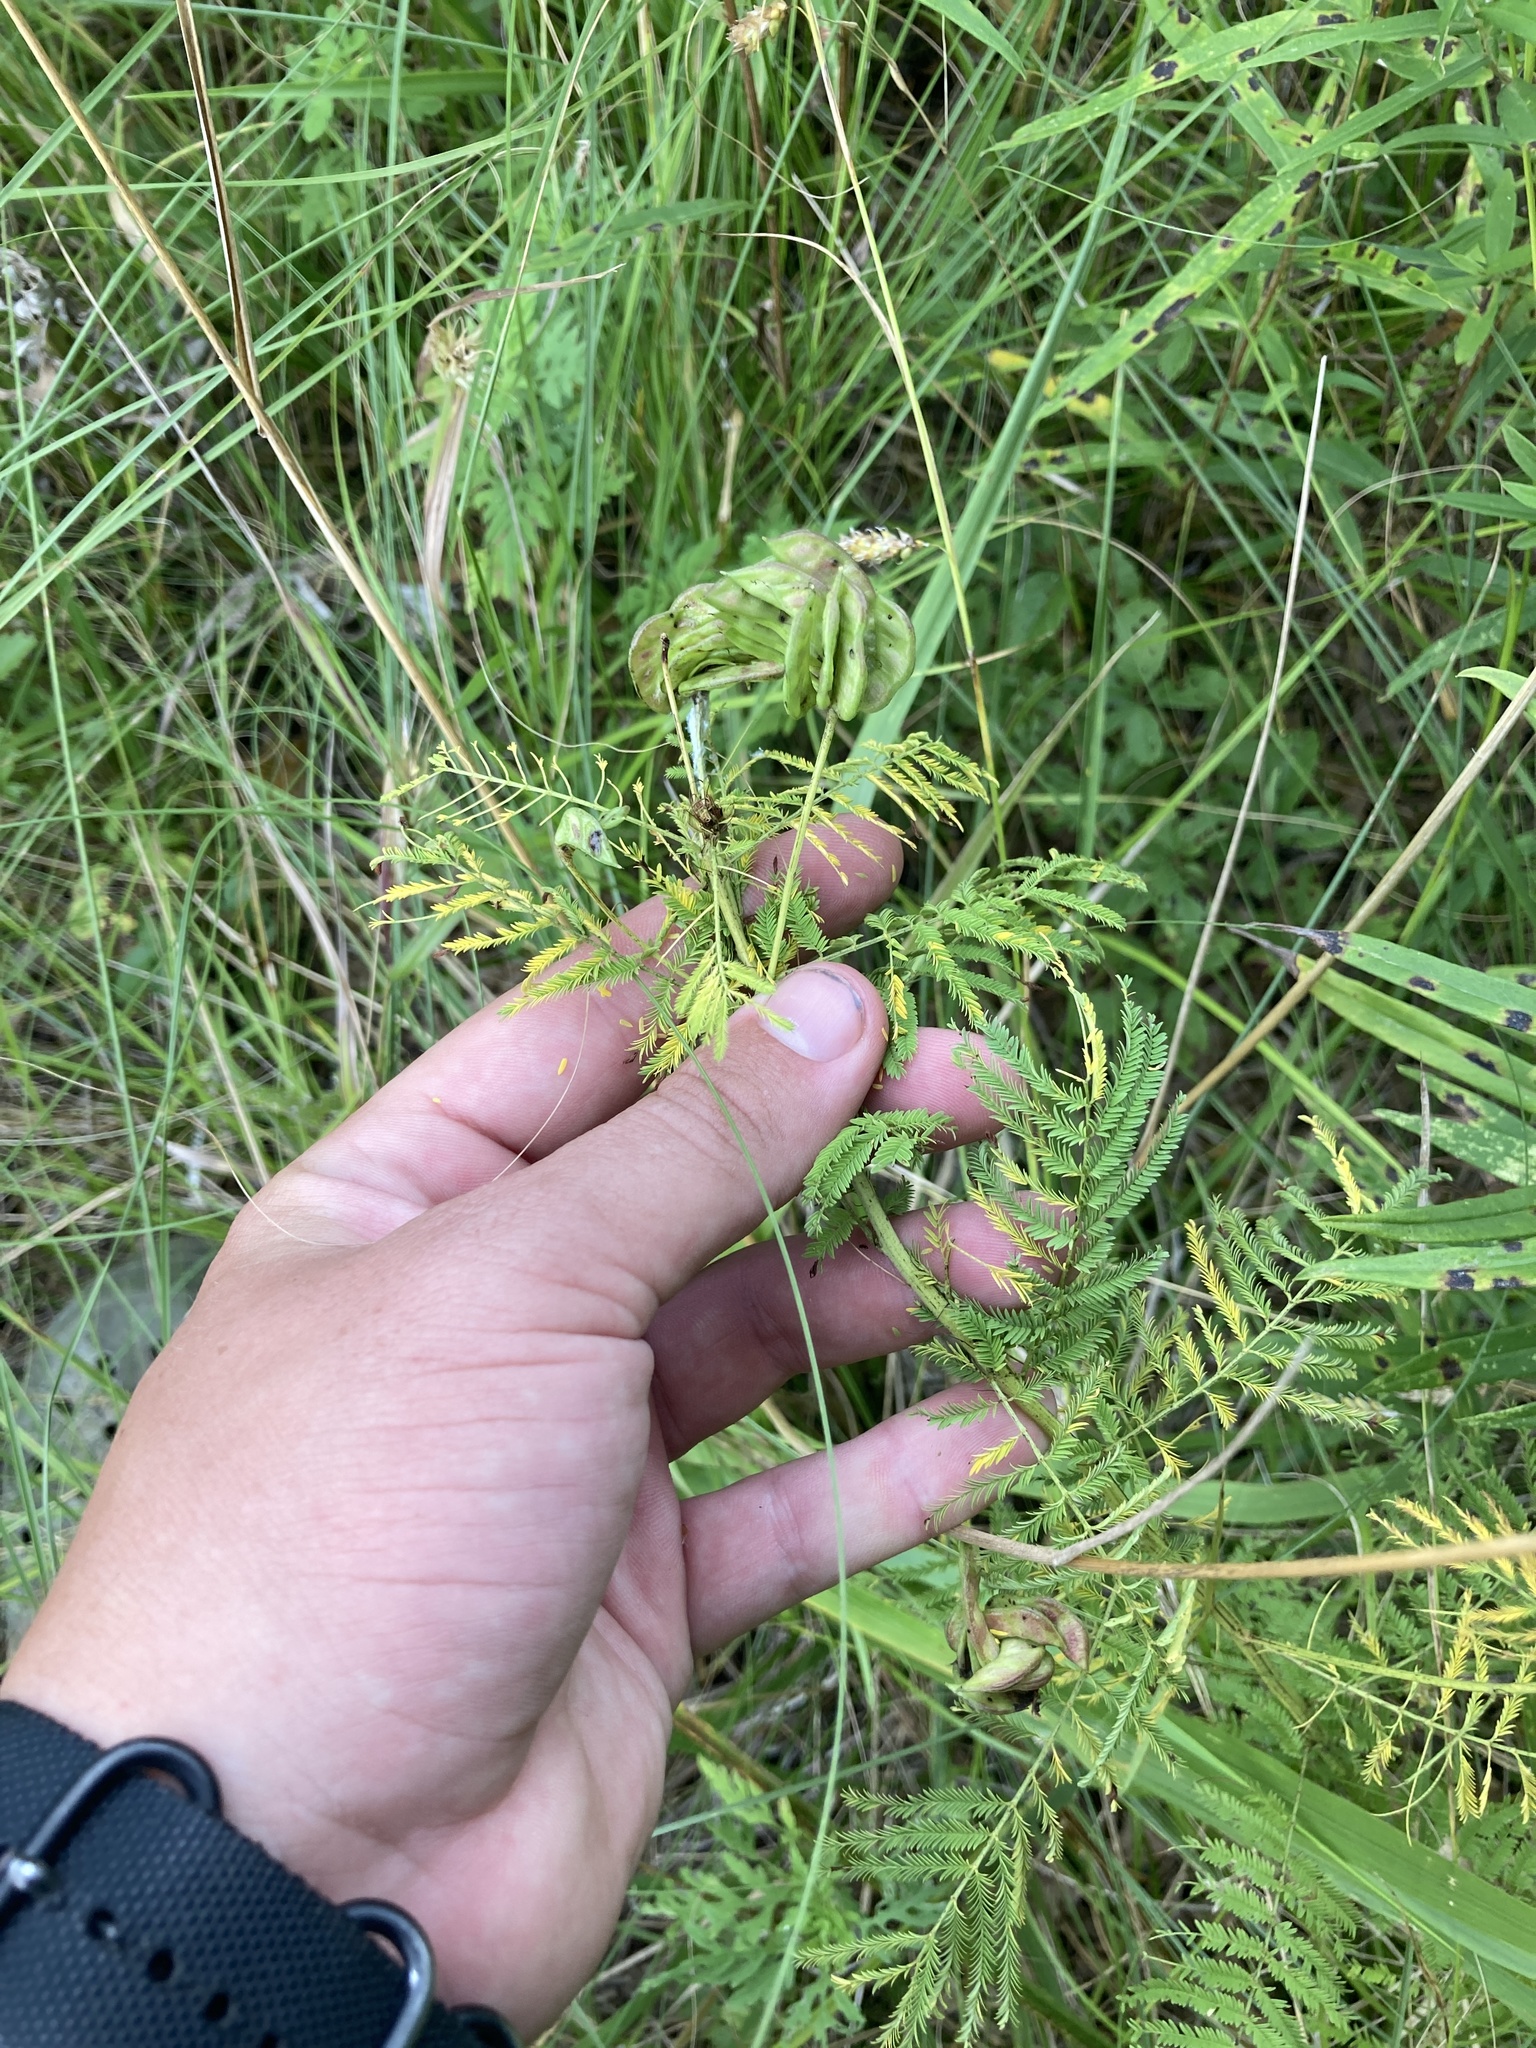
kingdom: Plantae
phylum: Tracheophyta
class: Magnoliopsida
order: Fabales
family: Fabaceae
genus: Desmanthus
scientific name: Desmanthus illinoensis
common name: Illinois bundle-flower
